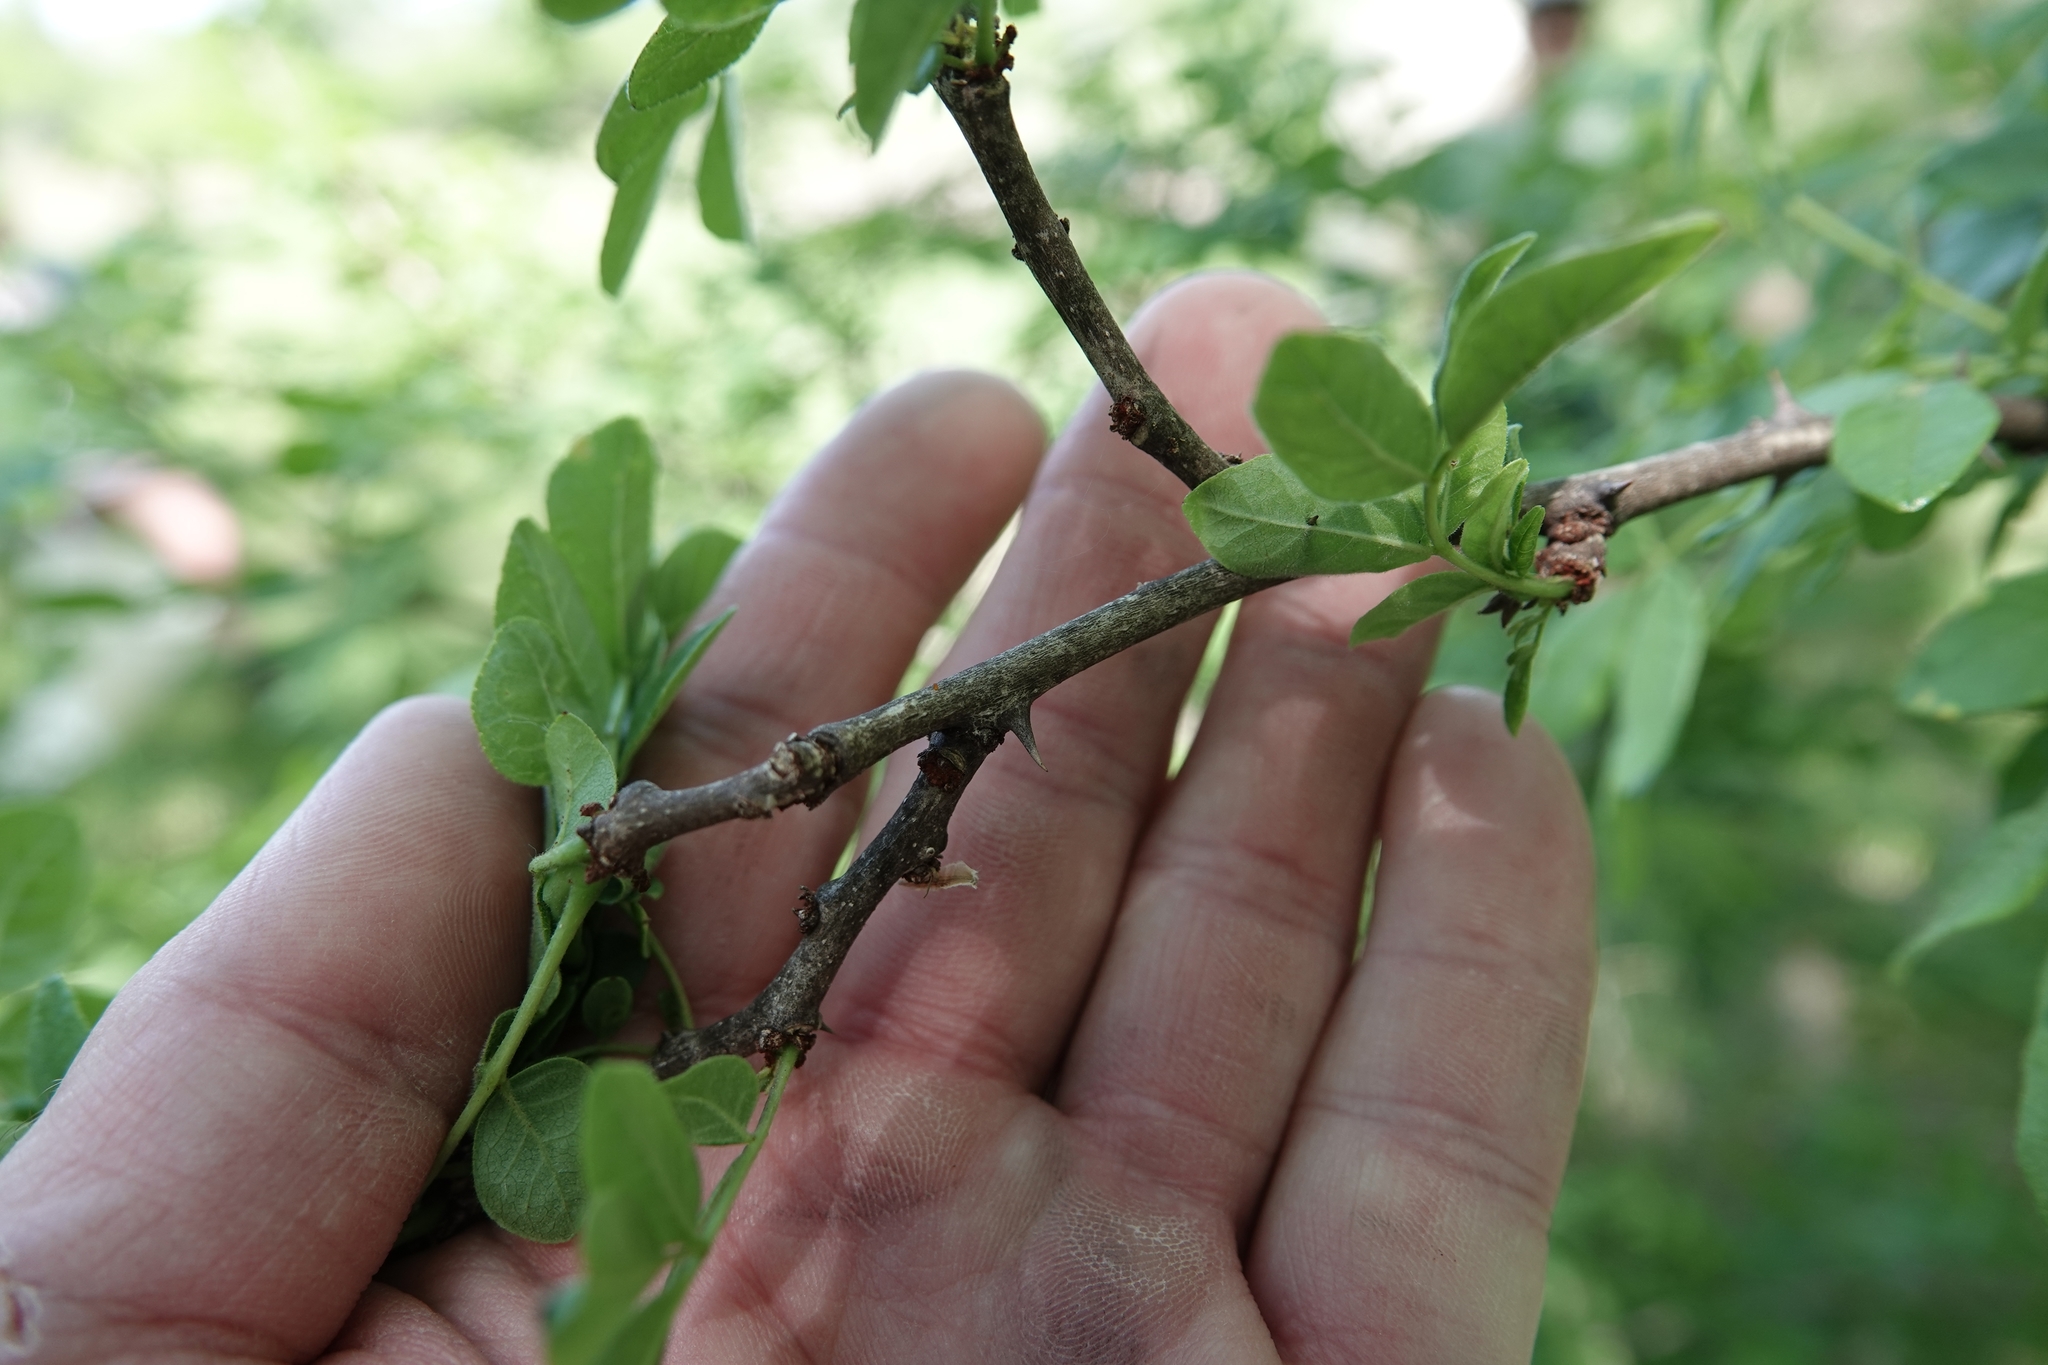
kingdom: Plantae
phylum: Tracheophyta
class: Magnoliopsida
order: Sapindales
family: Rutaceae
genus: Zanthoxylum
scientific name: Zanthoxylum americanum
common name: Northern prickly-ash
